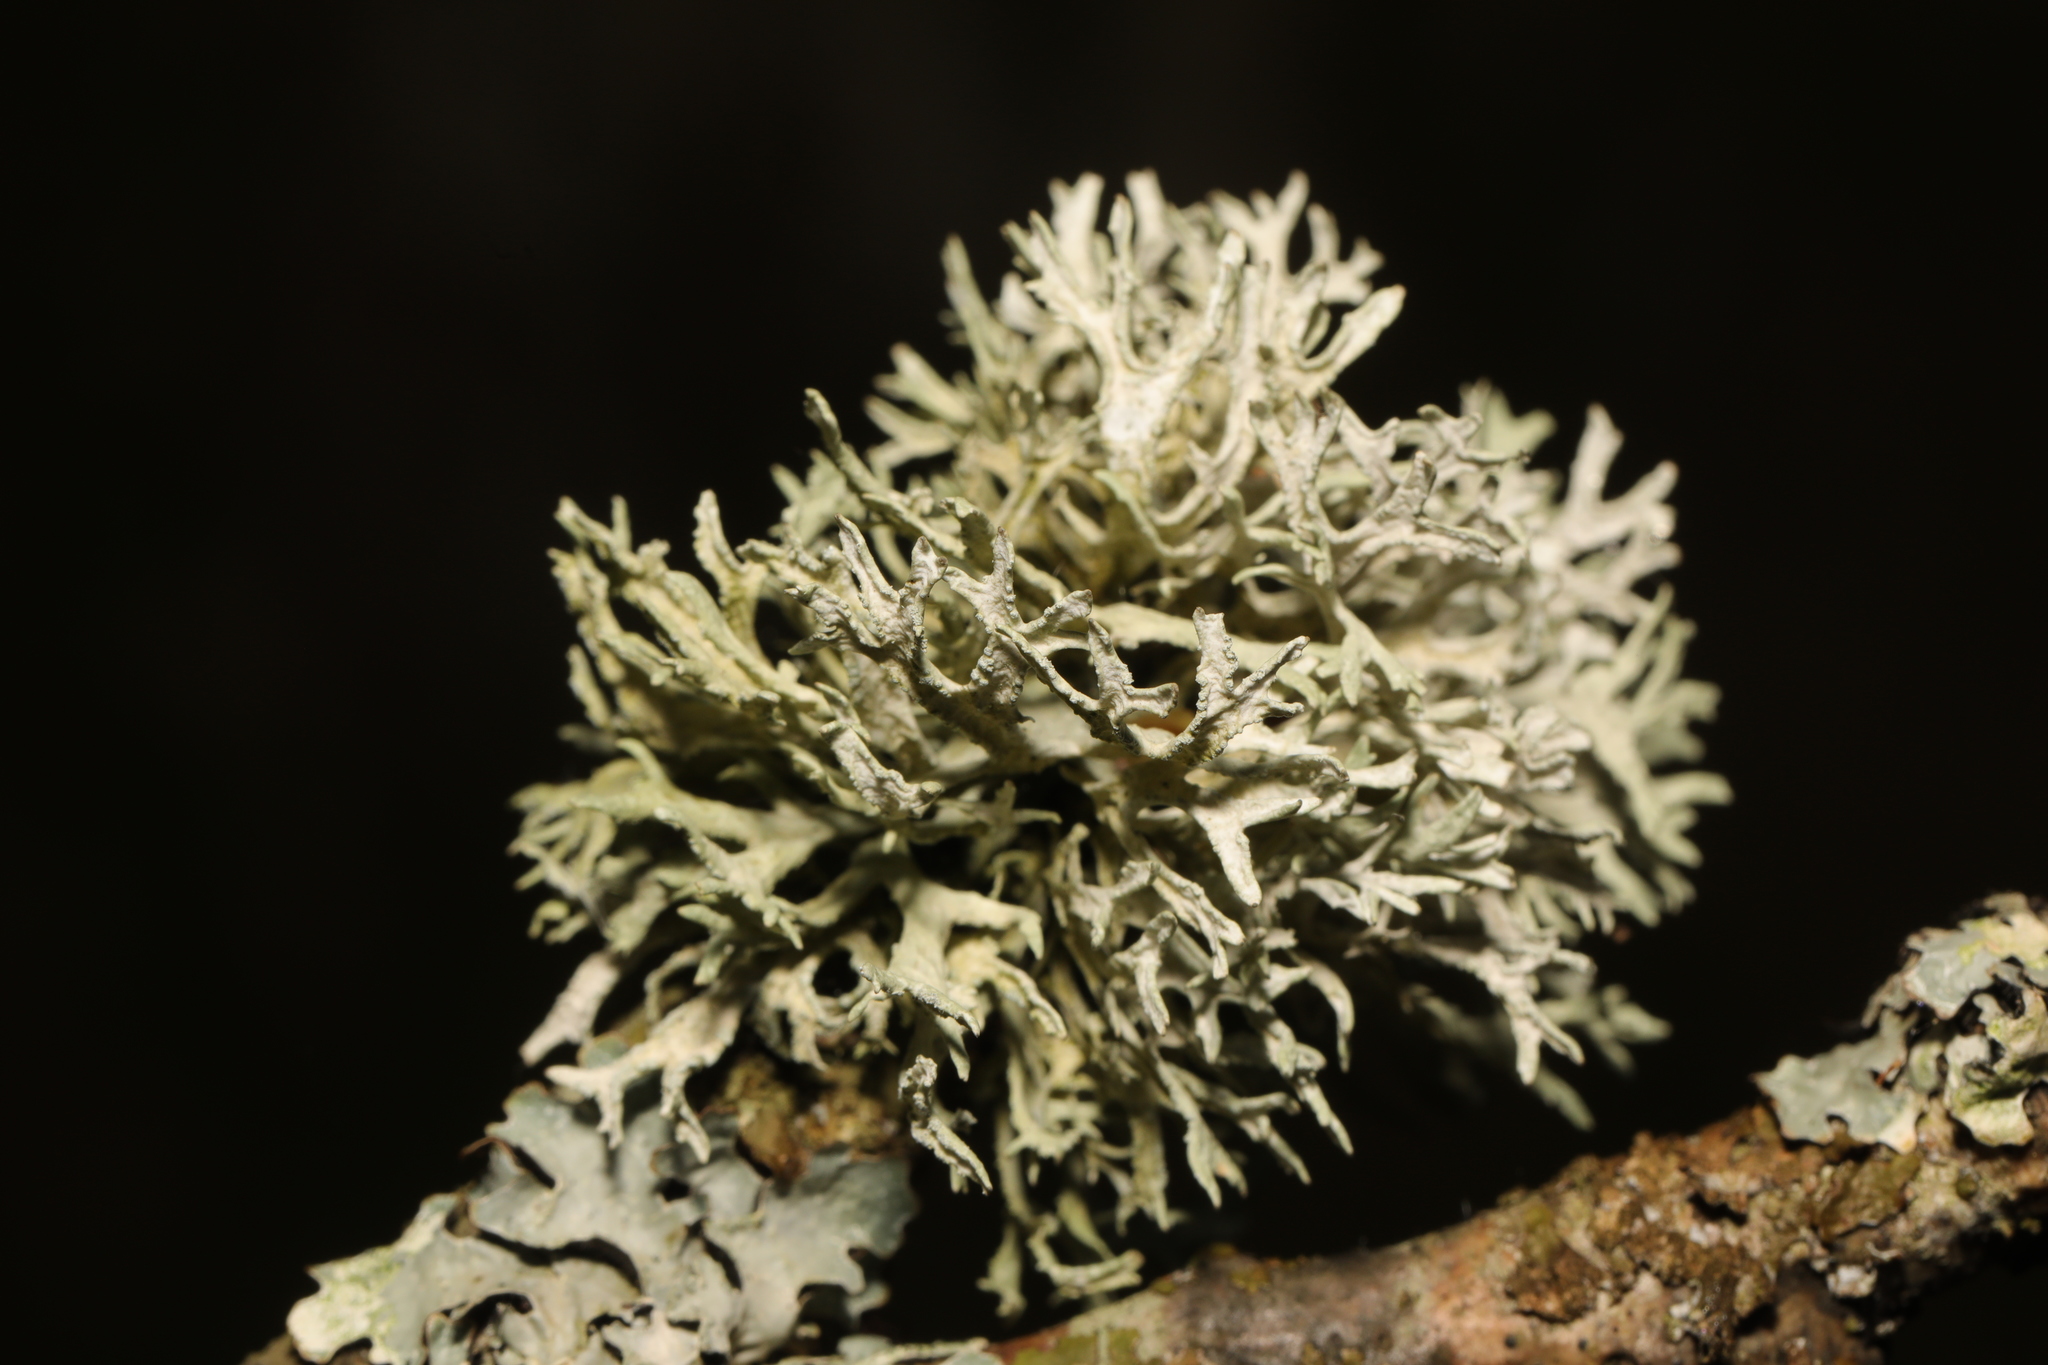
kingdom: Fungi
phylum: Ascomycota
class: Lecanoromycetes
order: Lecanorales
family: Parmeliaceae
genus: Evernia
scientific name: Evernia prunastri
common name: Oak moss
